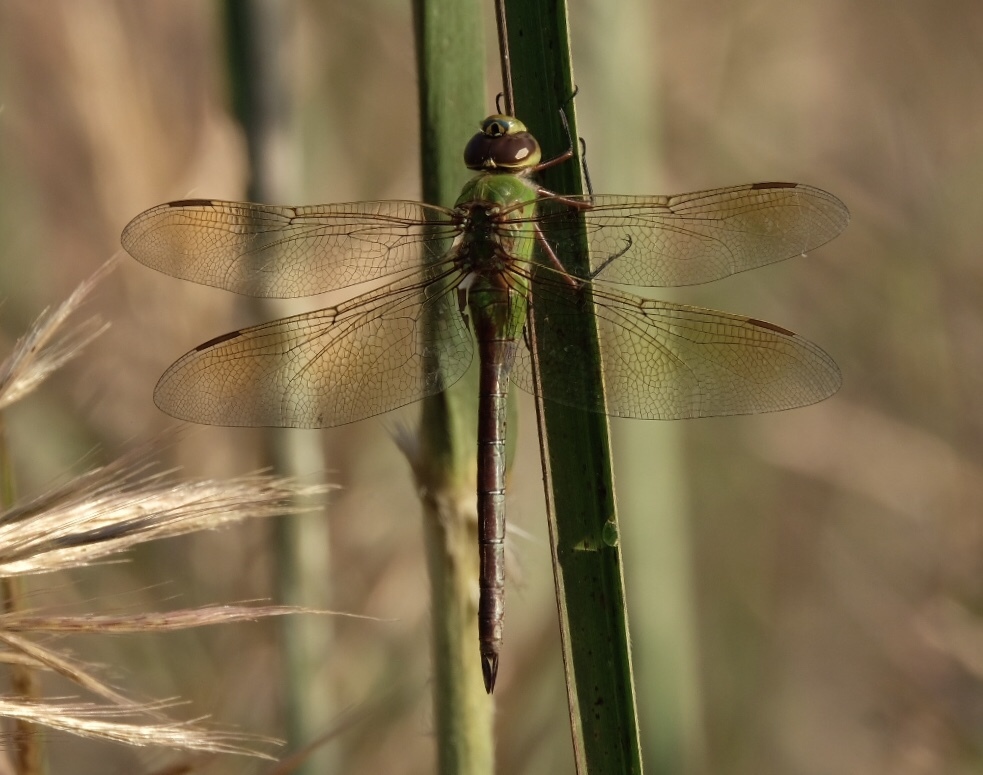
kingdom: Animalia
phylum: Arthropoda
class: Insecta
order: Odonata
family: Aeshnidae
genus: Anax
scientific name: Anax junius
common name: Common green darner
